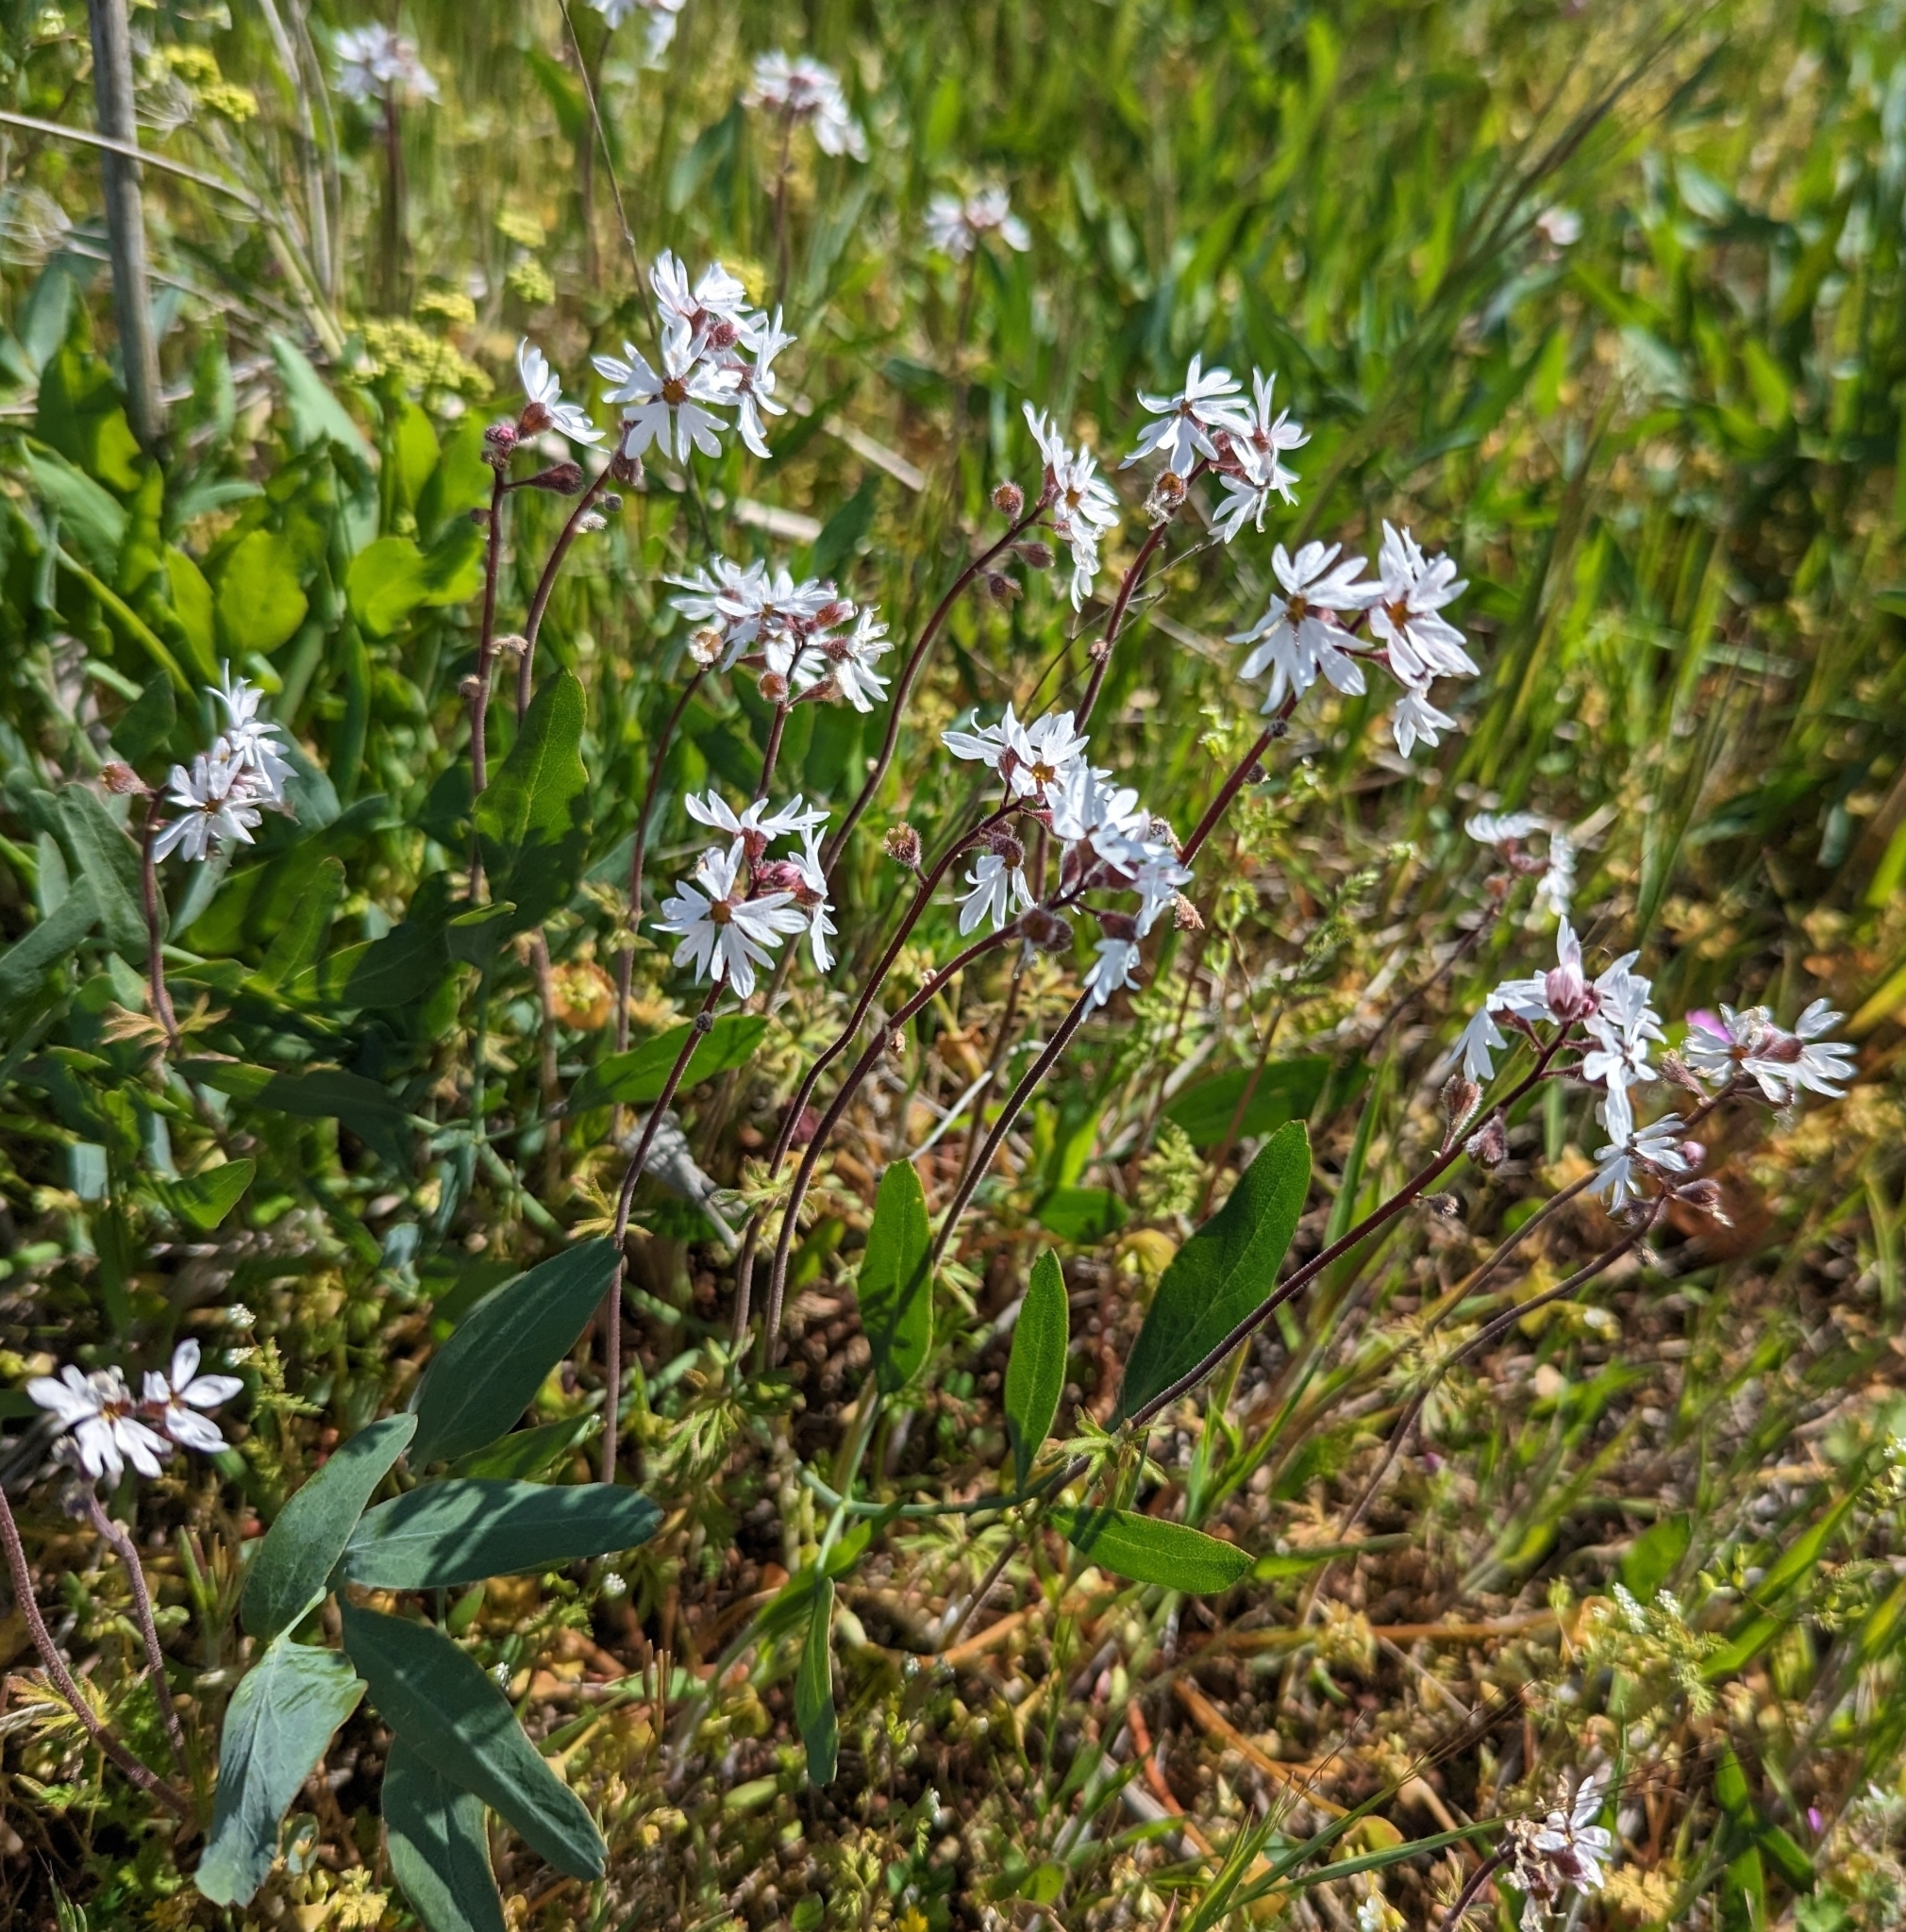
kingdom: Plantae
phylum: Tracheophyta
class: Magnoliopsida
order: Saxifragales
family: Saxifragaceae
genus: Lithophragma
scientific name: Lithophragma parviflorum
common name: Small-flowered fringe-cup
